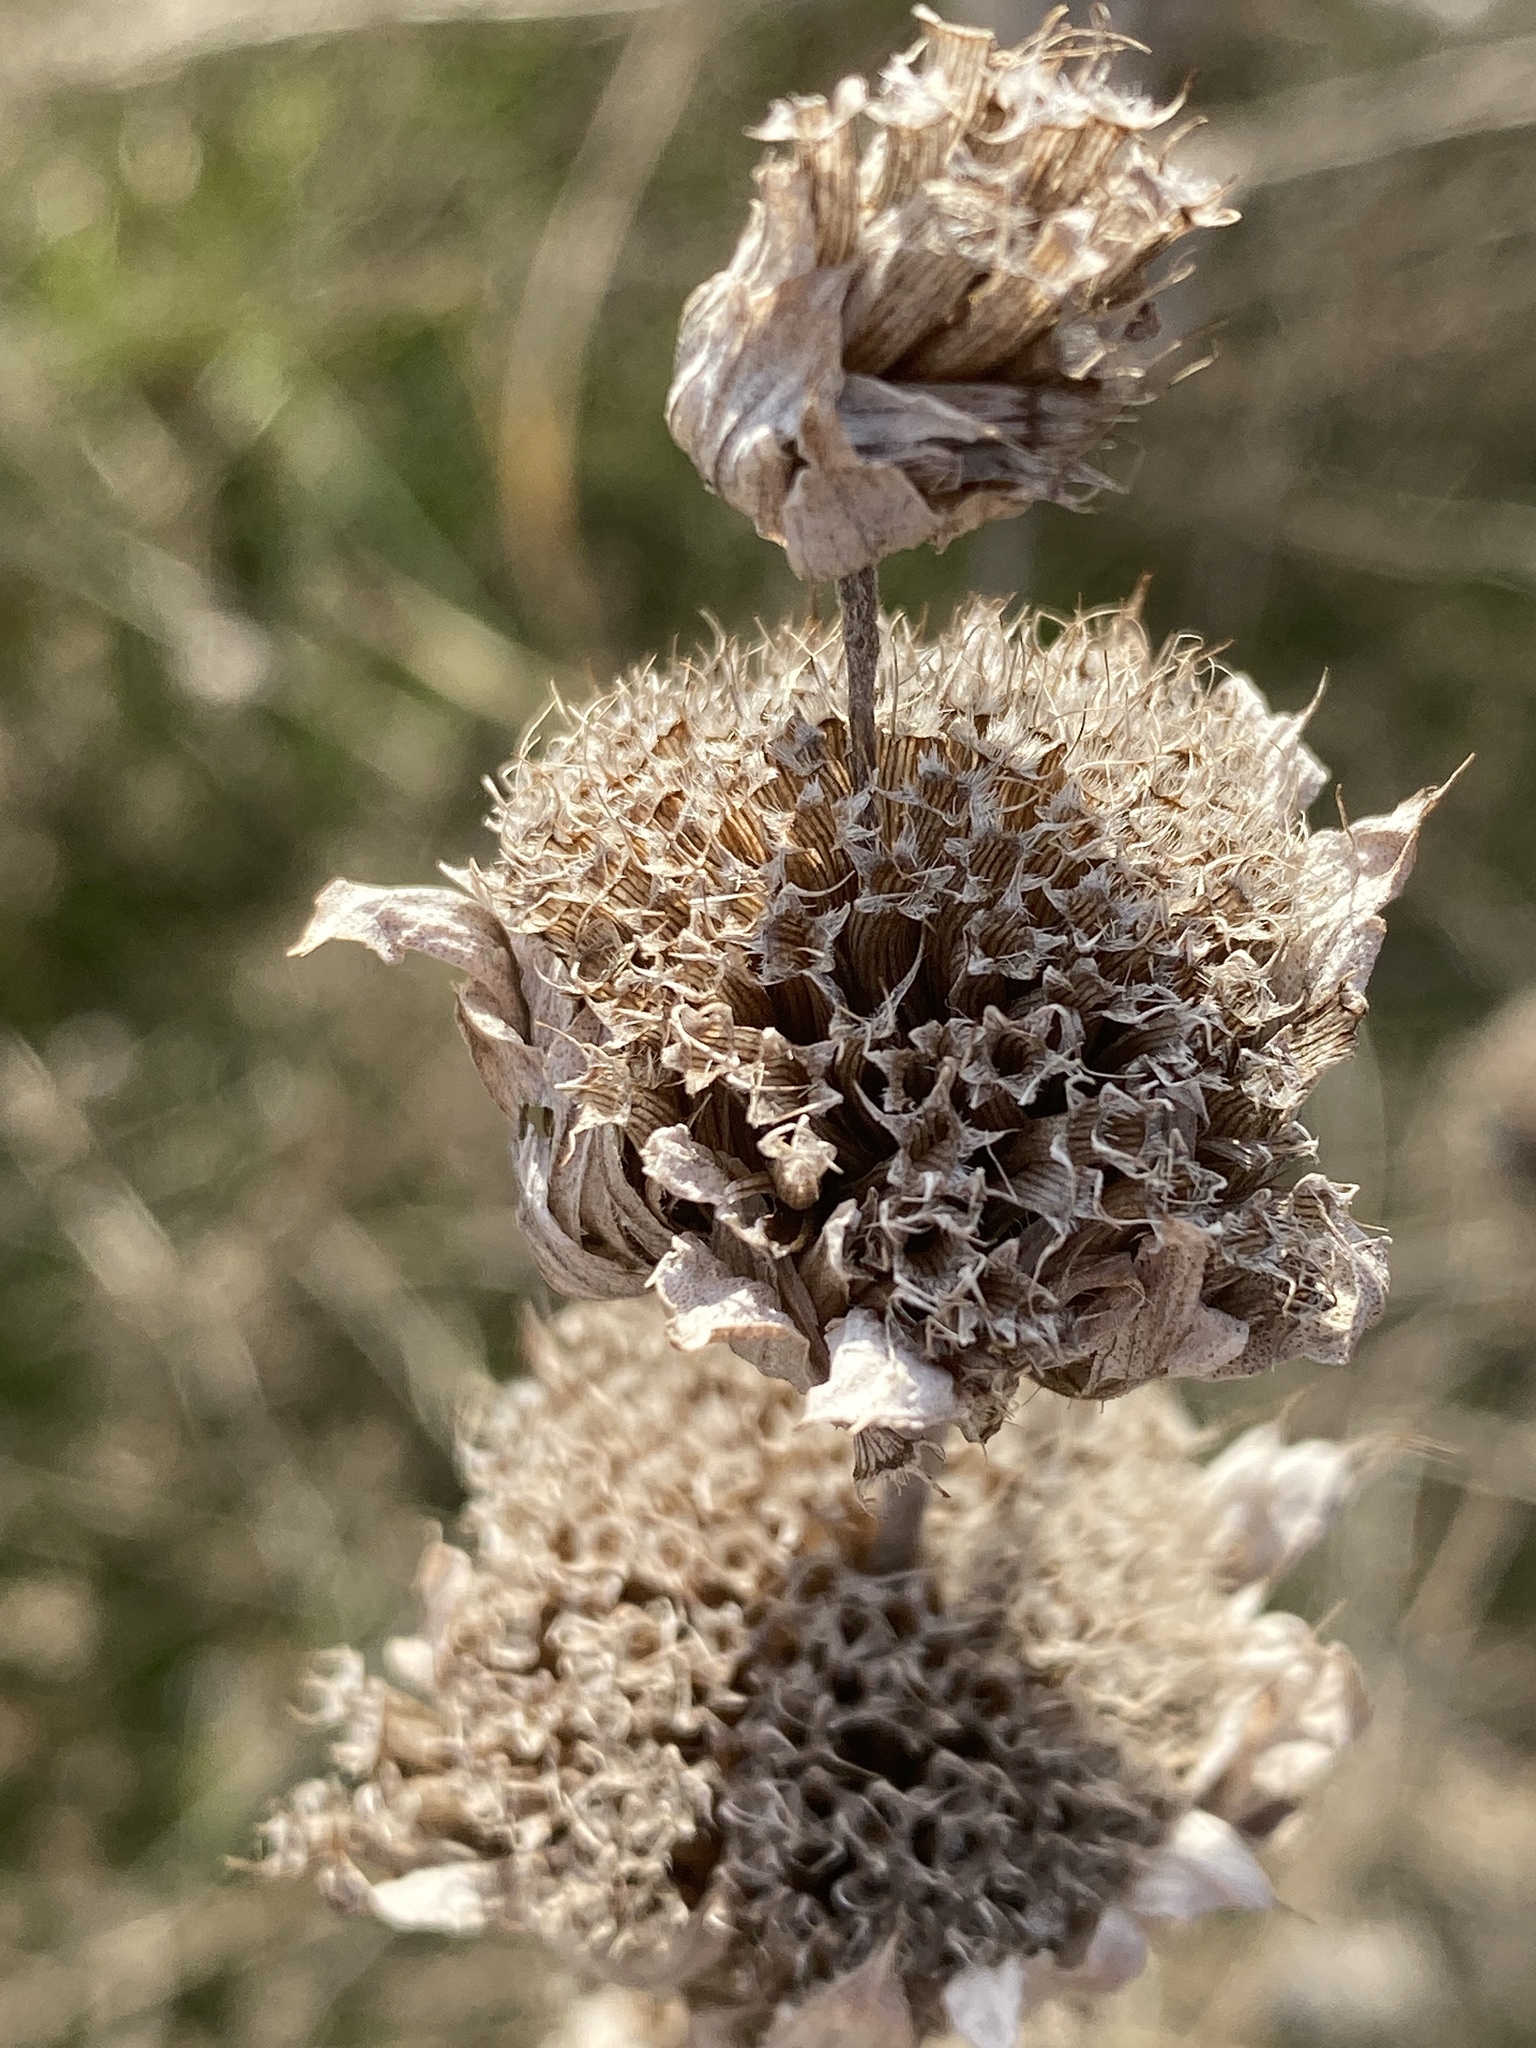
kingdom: Plantae
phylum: Tracheophyta
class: Magnoliopsida
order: Lamiales
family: Lamiaceae
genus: Monarda
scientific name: Monarda citriodora
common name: Lemon beebalm
